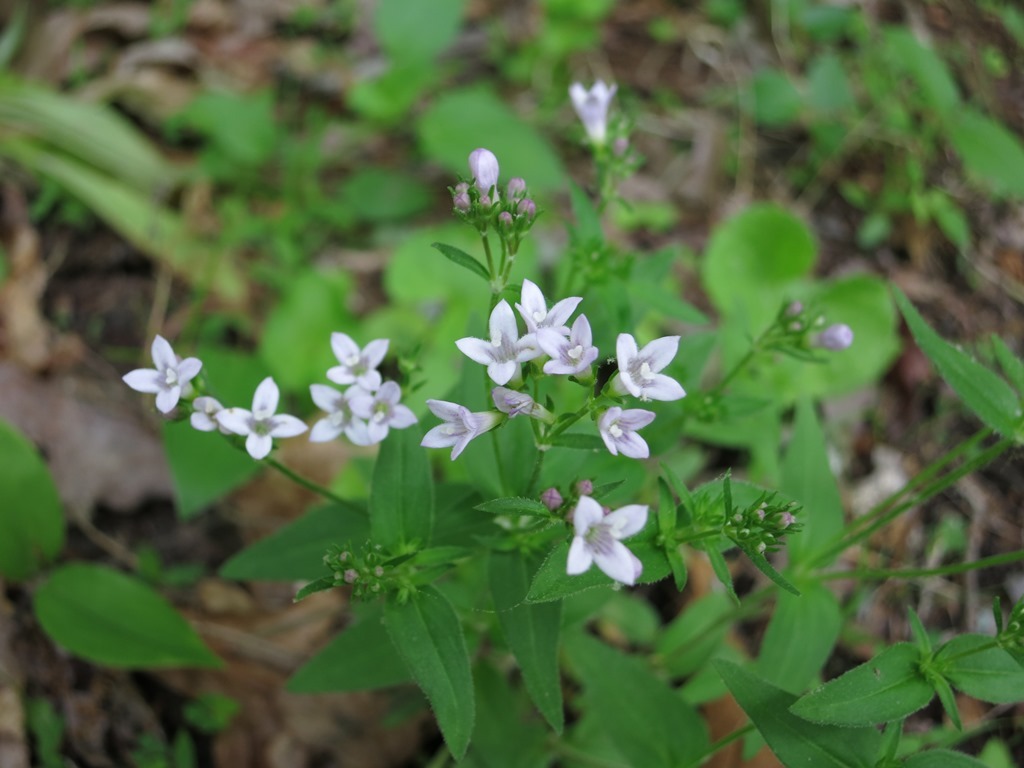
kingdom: Plantae
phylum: Tracheophyta
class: Magnoliopsida
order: Gentianales
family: Rubiaceae
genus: Houstonia
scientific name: Houstonia purpurea
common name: Summer bluet
